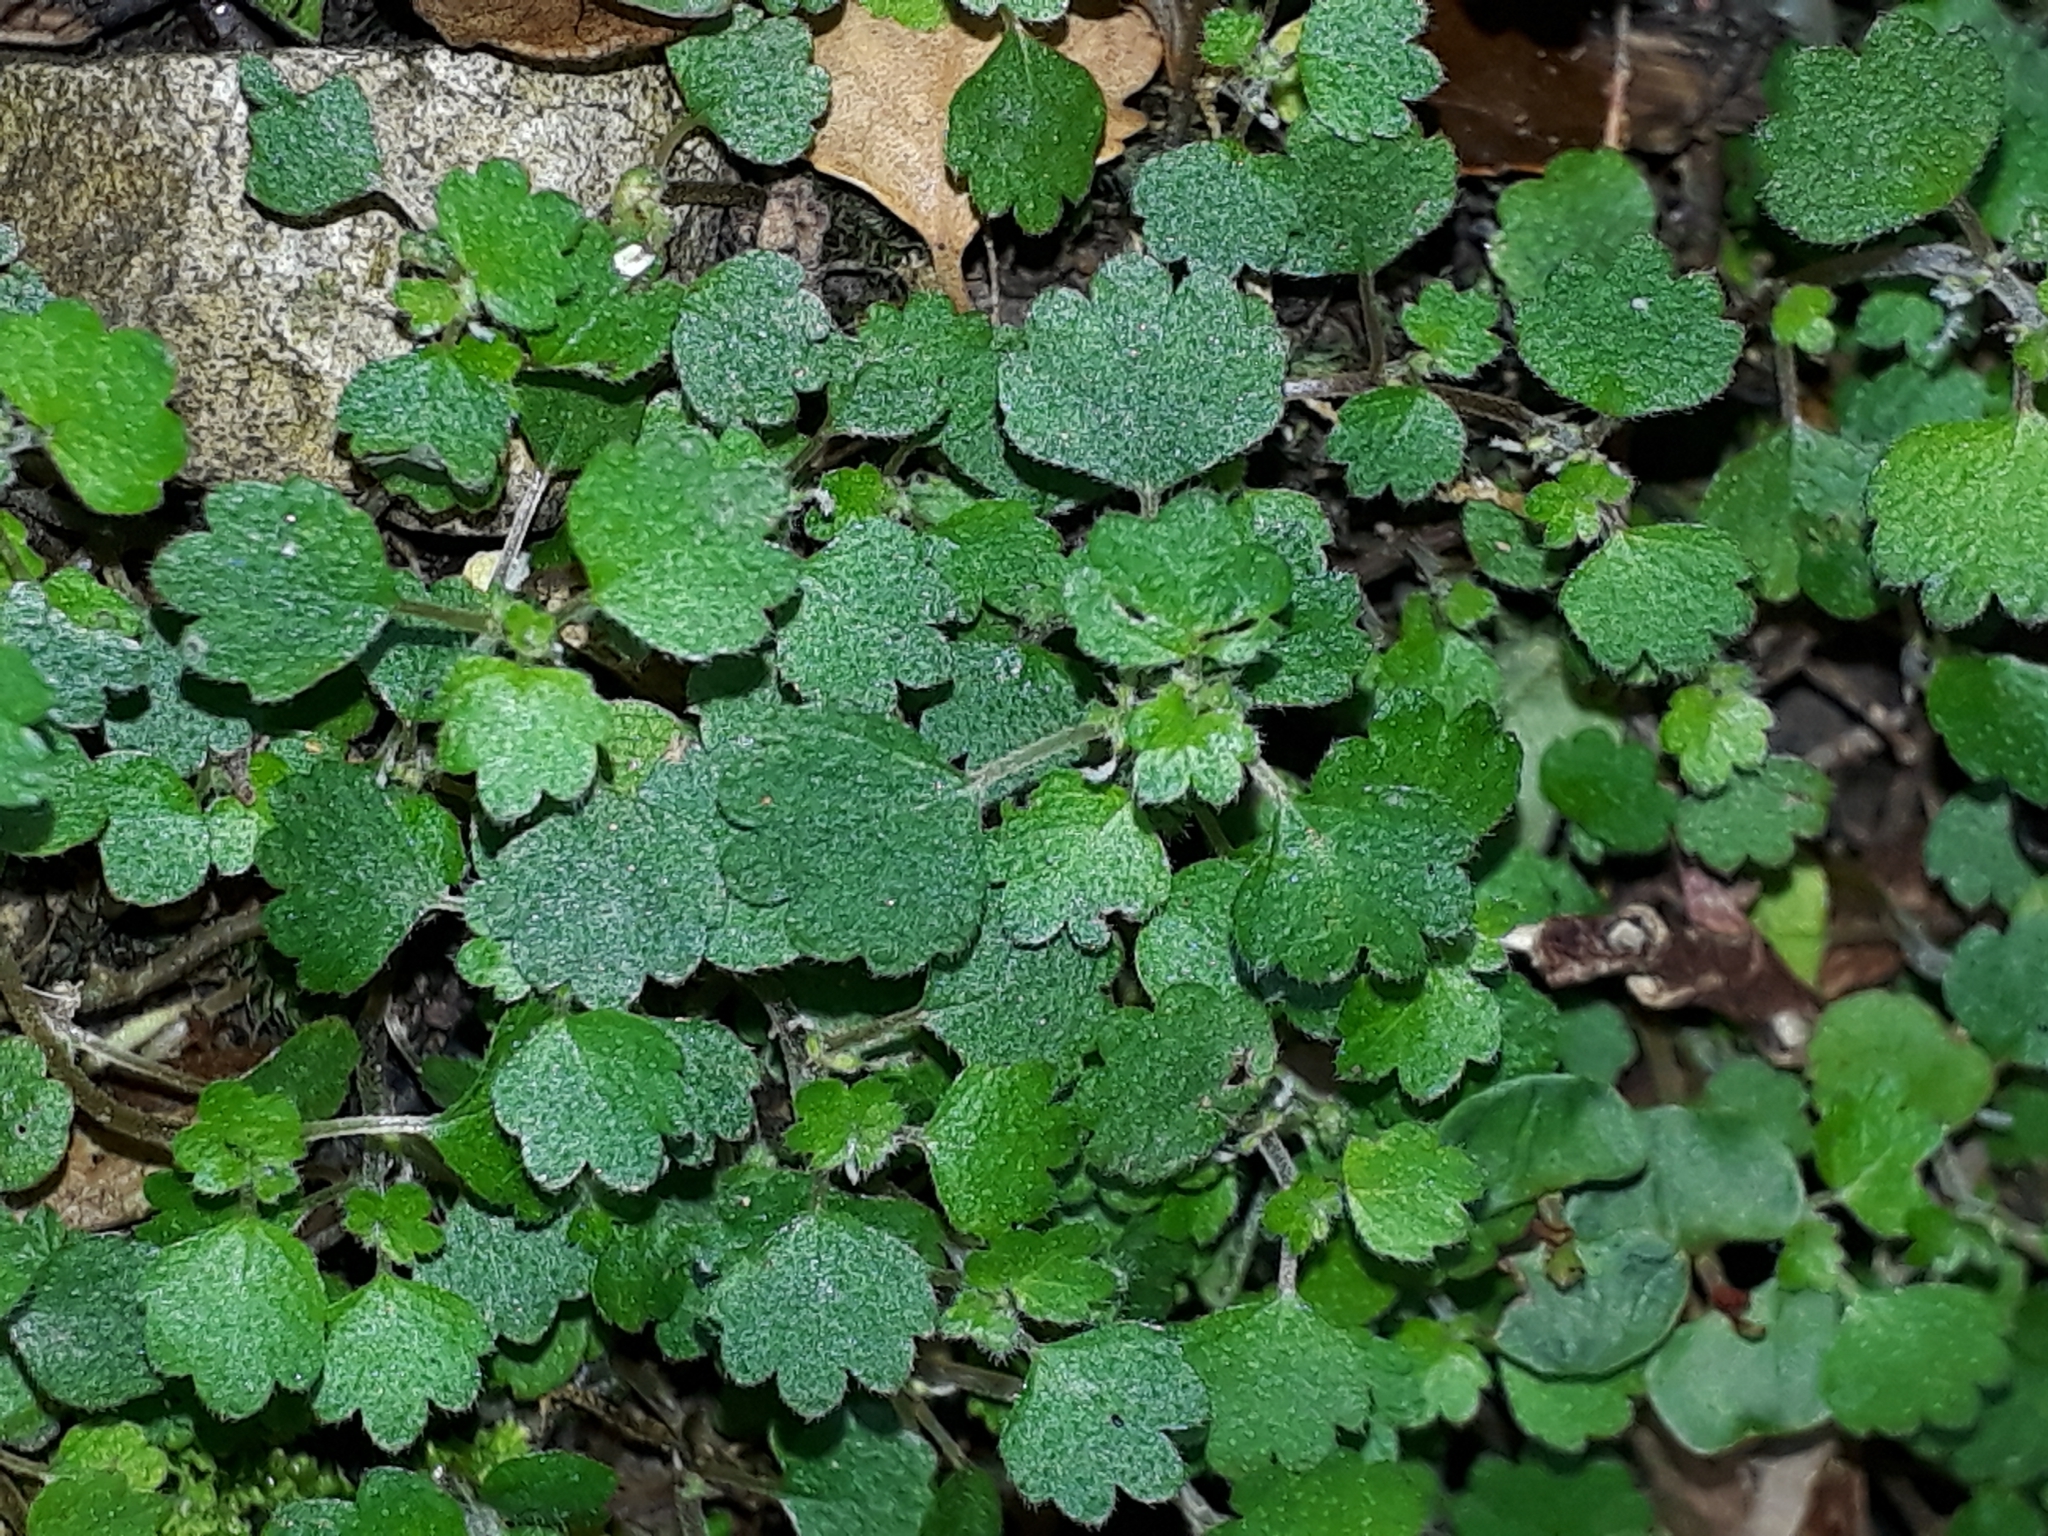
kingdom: Plantae
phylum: Tracheophyta
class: Magnoliopsida
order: Rosales
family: Urticaceae
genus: Australina
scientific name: Australina pusilla
